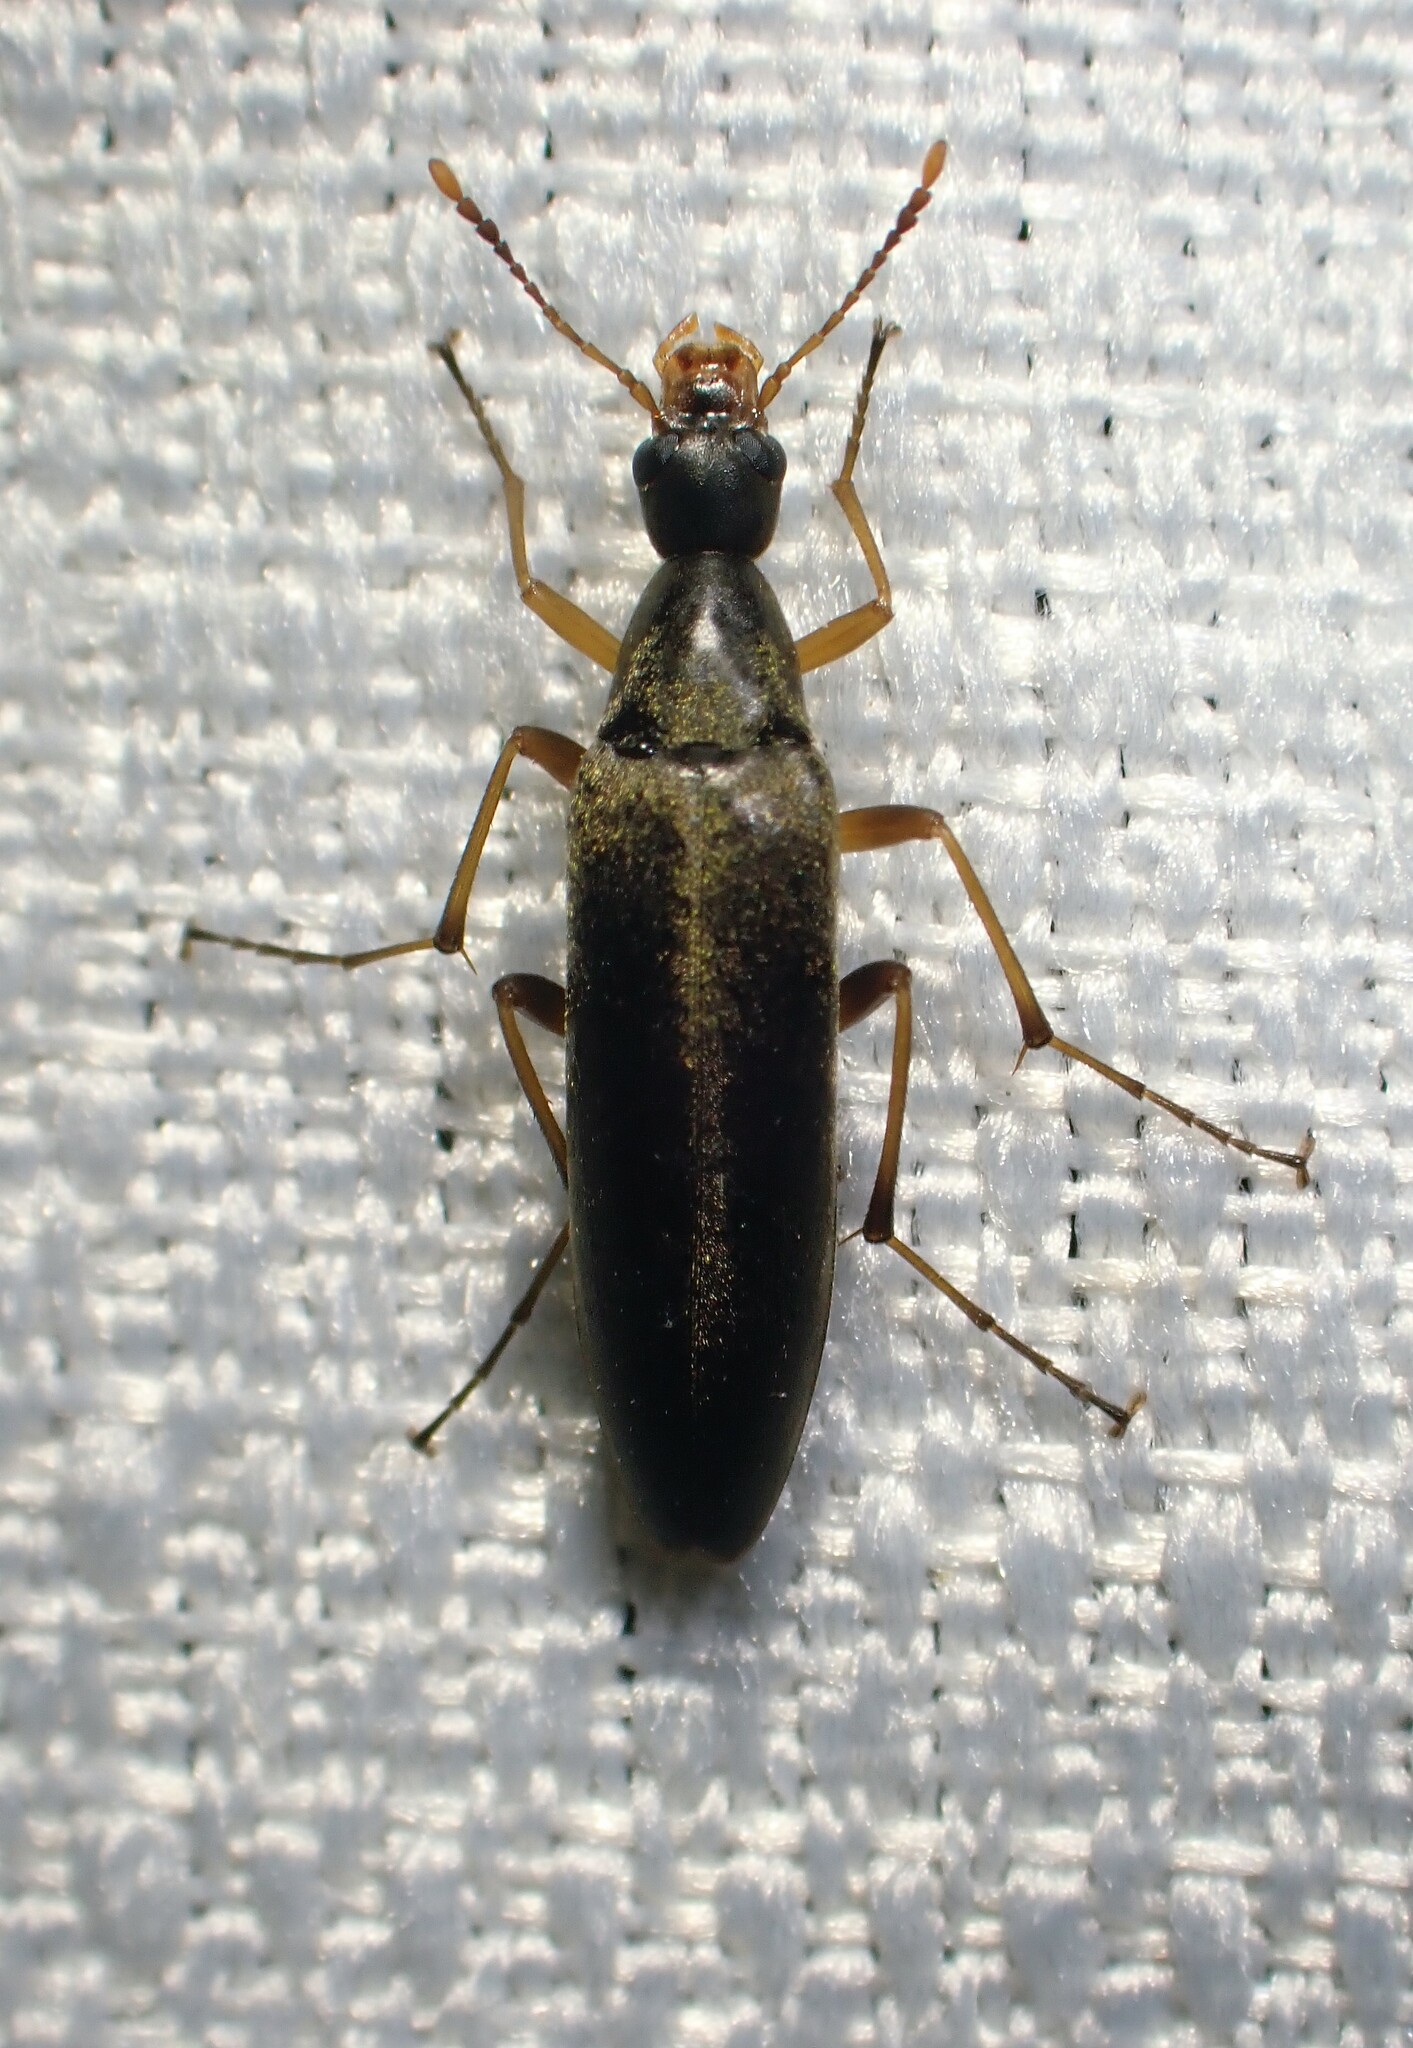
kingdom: Animalia
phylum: Arthropoda
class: Insecta
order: Coleoptera
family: Stenotrachelidae
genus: Cephaloon
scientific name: Cephaloon lepturides
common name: False leptura beetle
